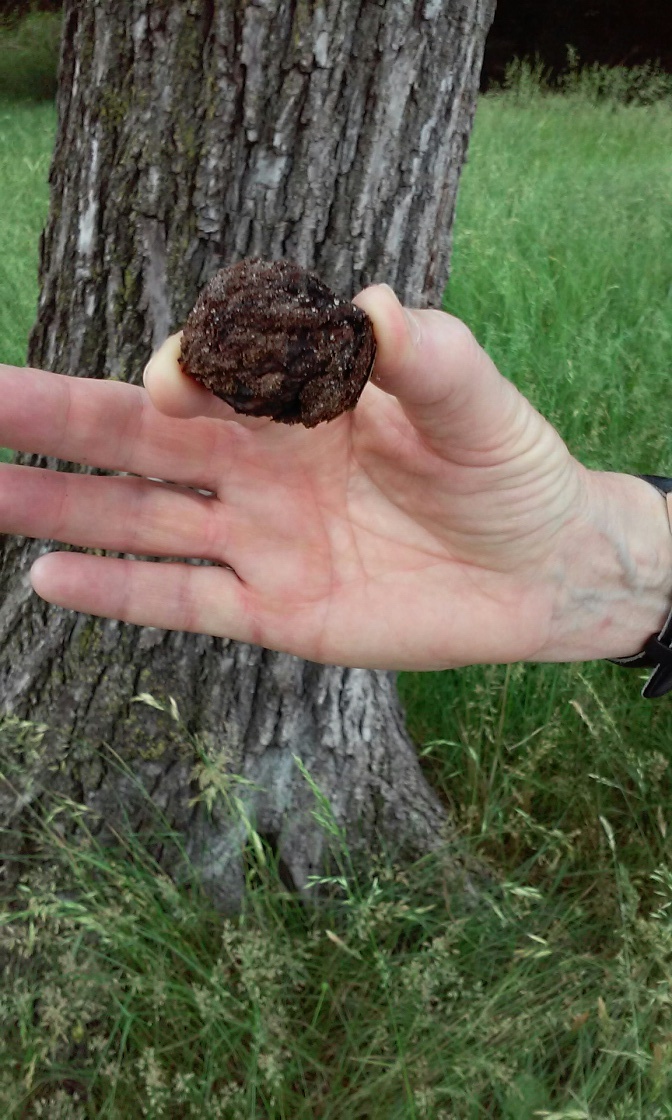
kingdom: Plantae
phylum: Tracheophyta
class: Magnoliopsida
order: Fagales
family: Juglandaceae
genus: Juglans
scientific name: Juglans nigra
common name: Black walnut
